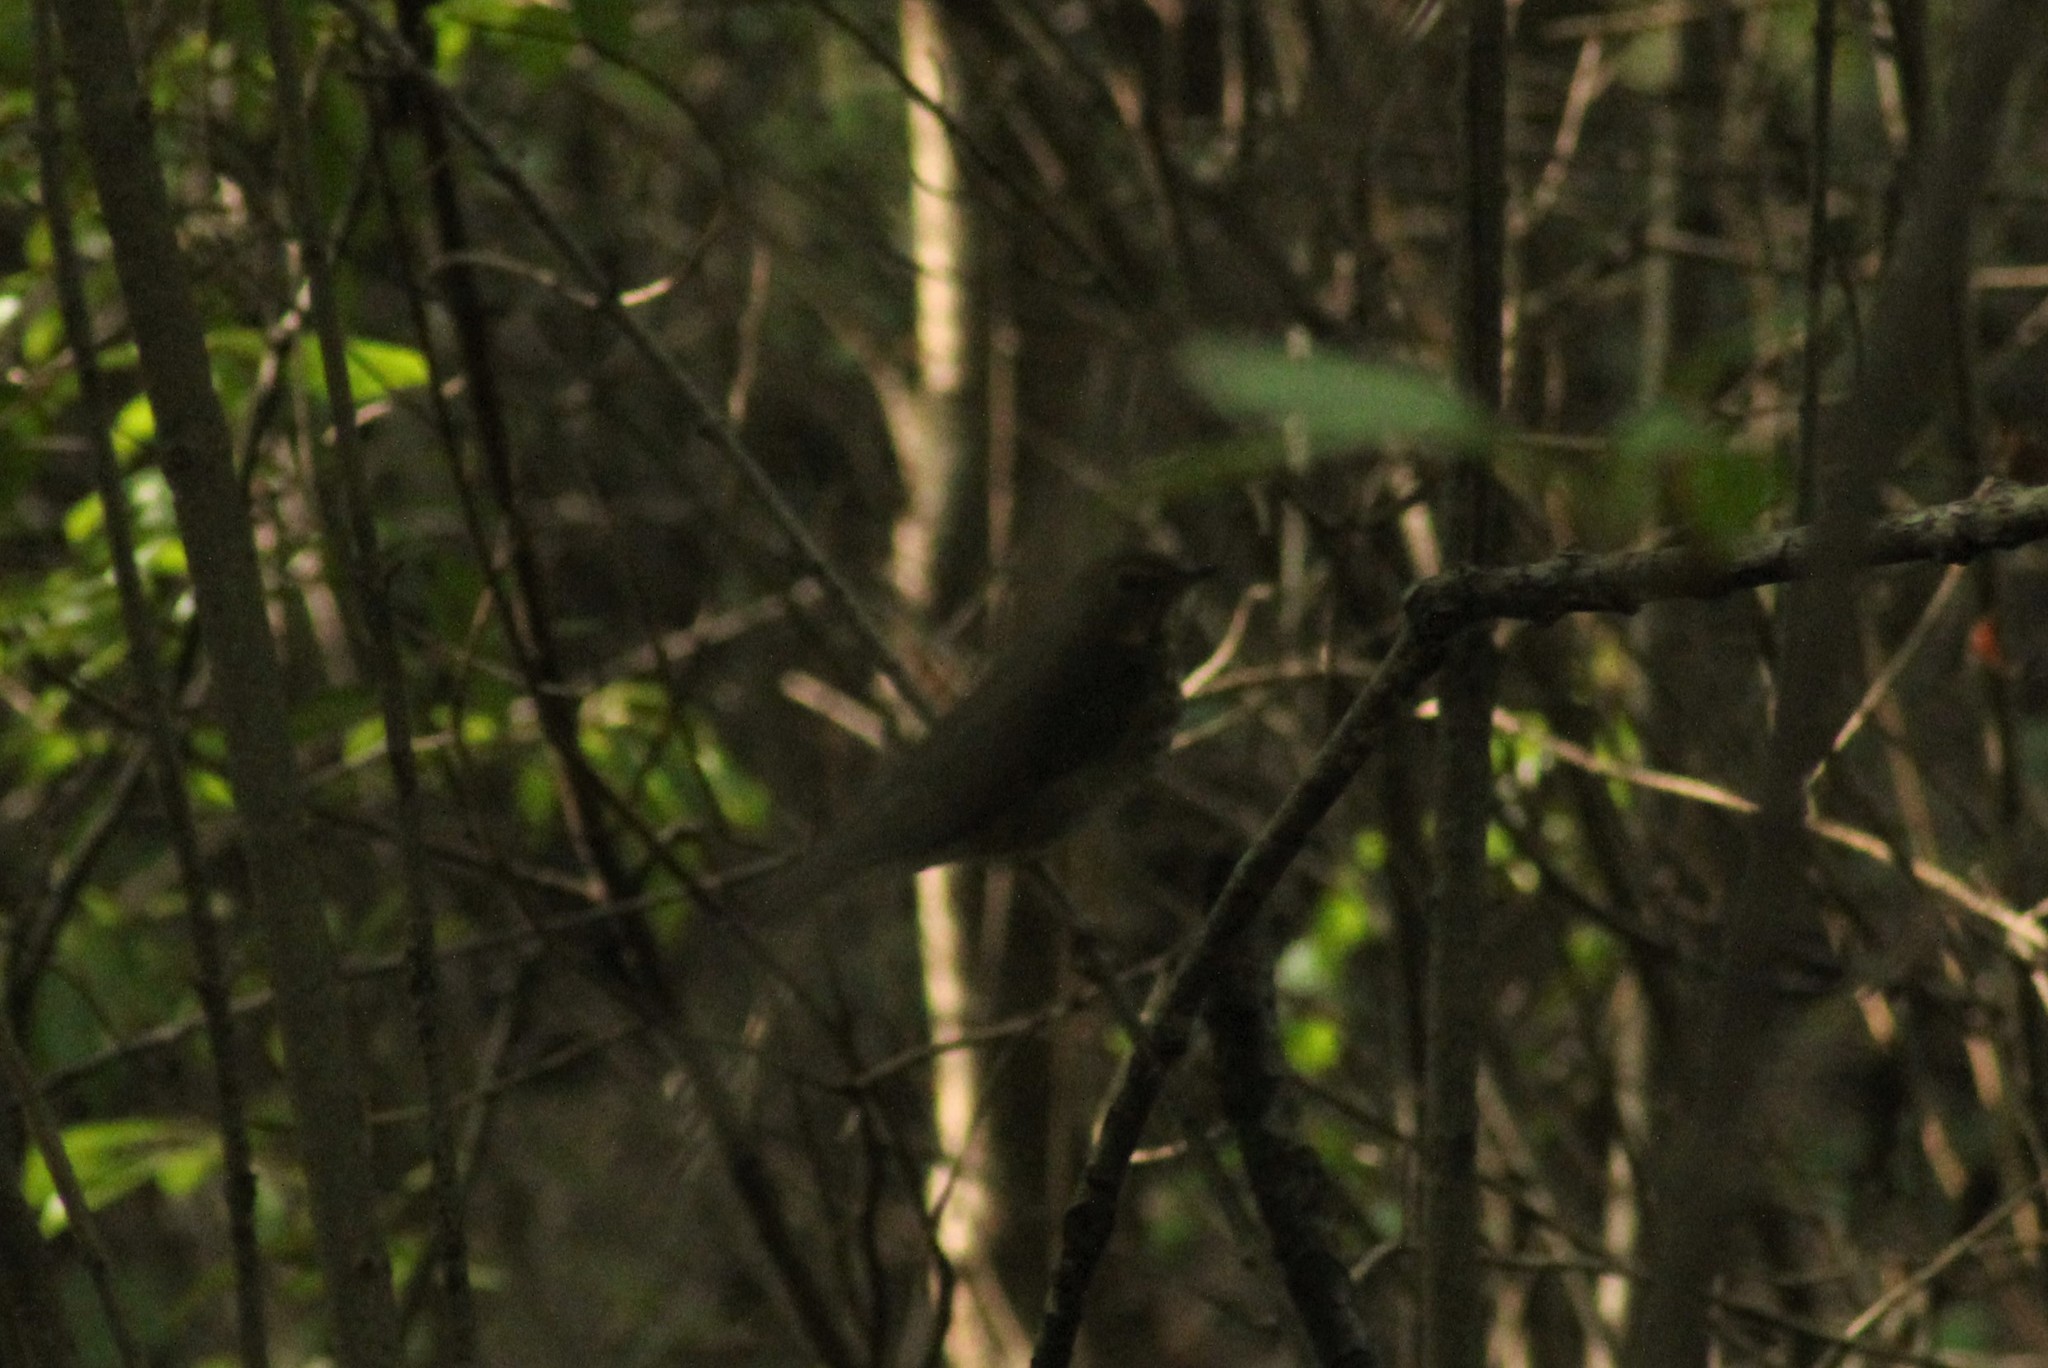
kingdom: Animalia
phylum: Chordata
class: Aves
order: Passeriformes
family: Turdidae
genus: Catharus
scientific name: Catharus ustulatus
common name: Swainson's thrush
